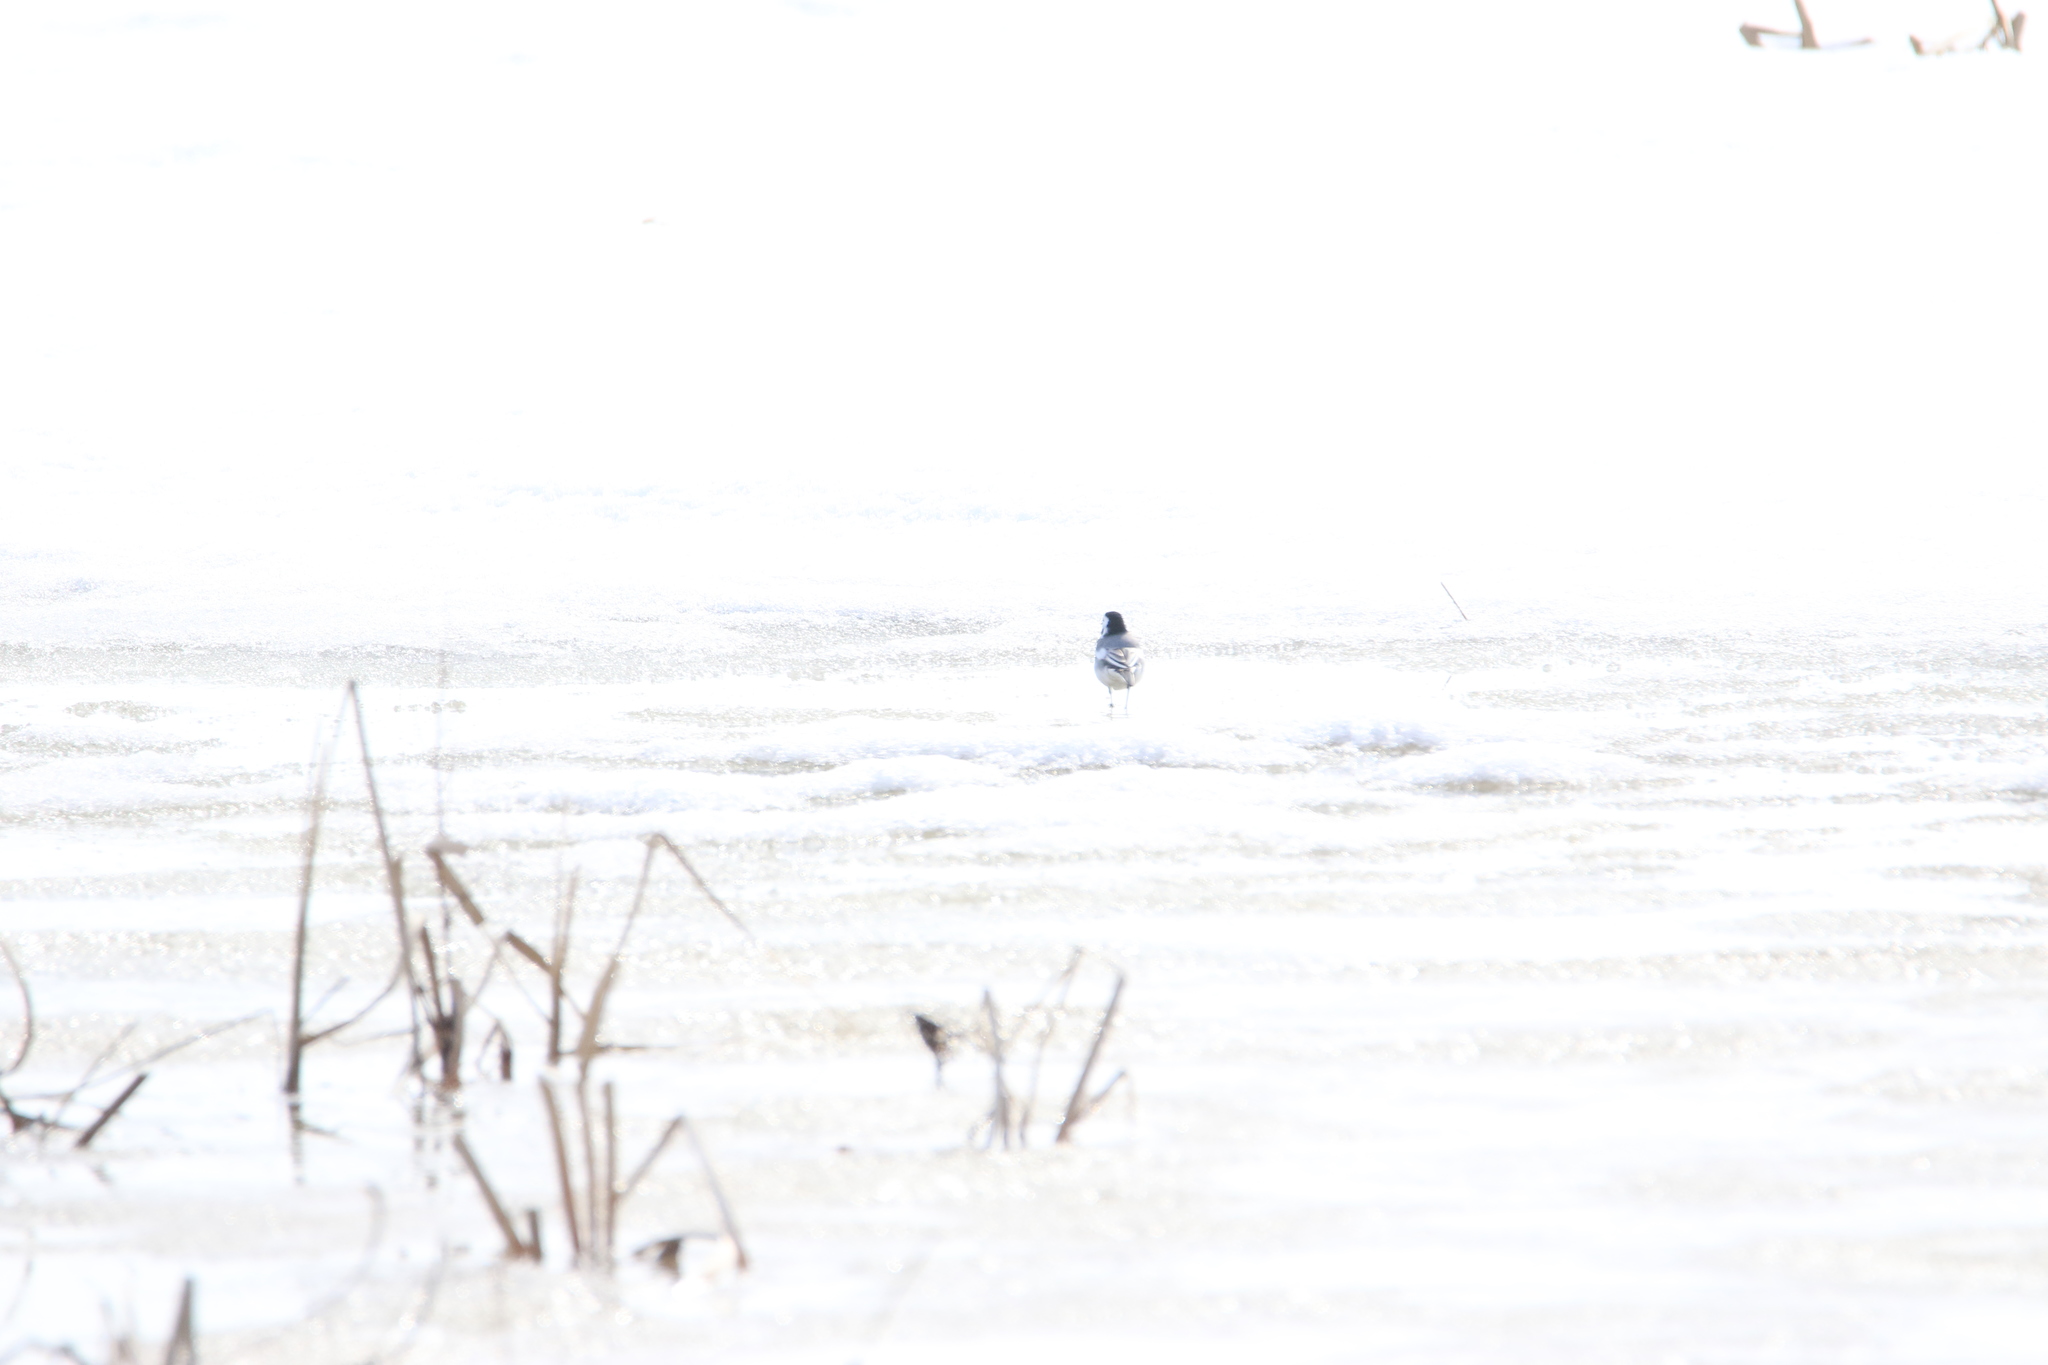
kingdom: Animalia
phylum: Chordata
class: Aves
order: Passeriformes
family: Motacillidae
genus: Motacilla
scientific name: Motacilla alba
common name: White wagtail
